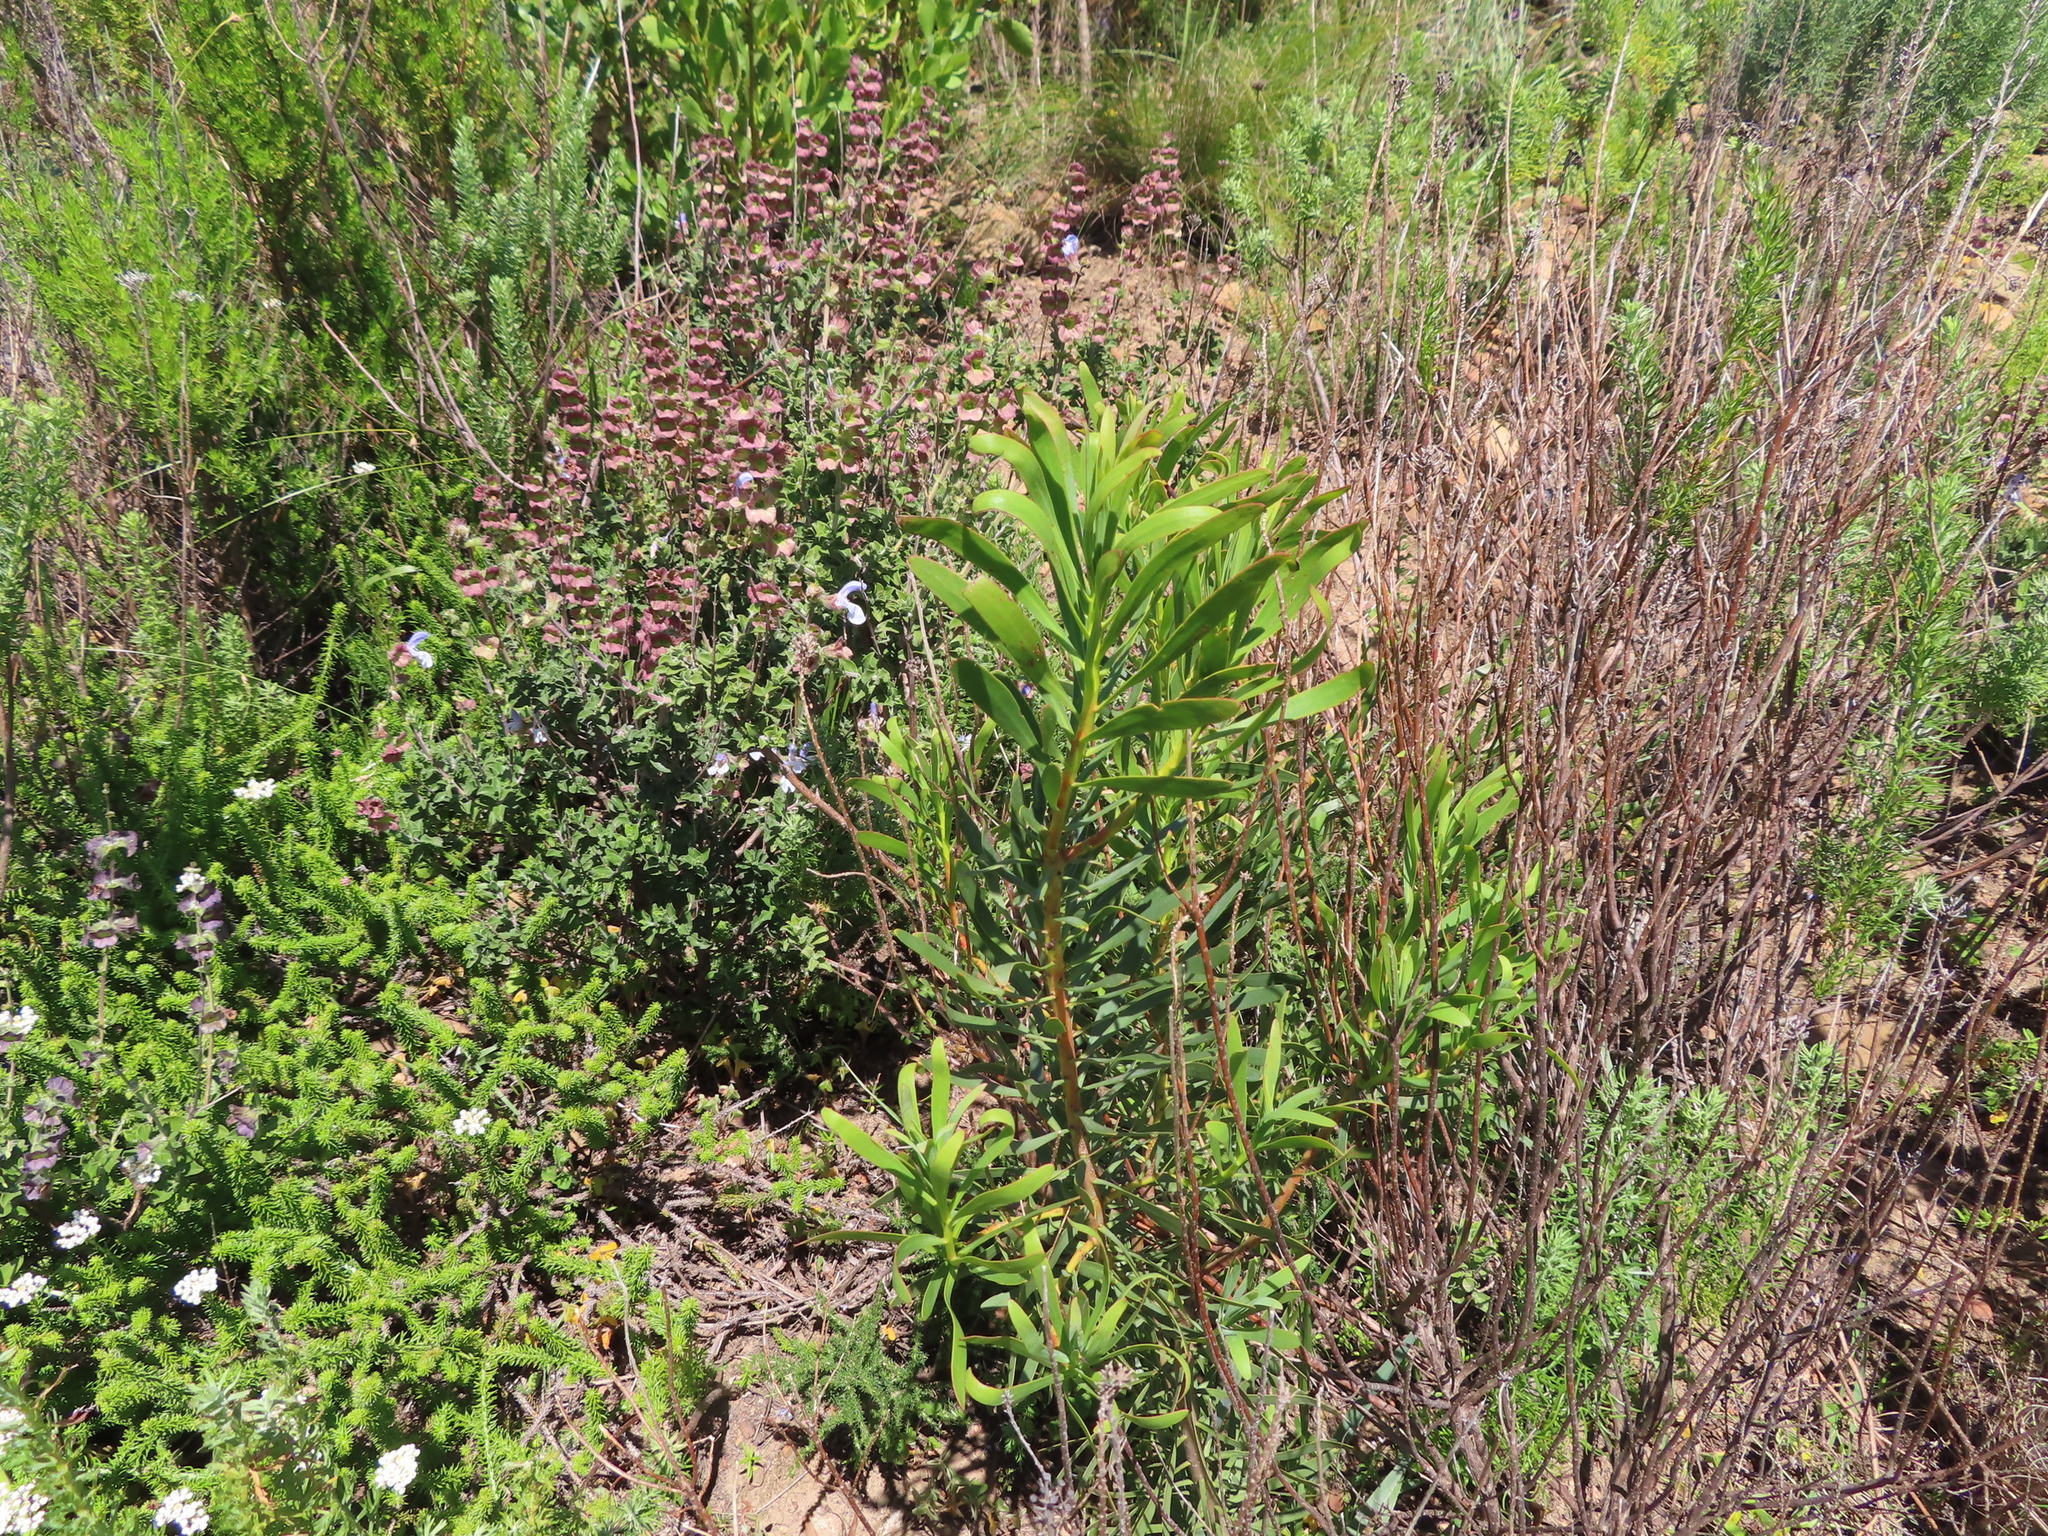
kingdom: Plantae
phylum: Tracheophyta
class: Magnoliopsida
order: Proteales
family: Proteaceae
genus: Protea
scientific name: Protea repens
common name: Sugarbush
